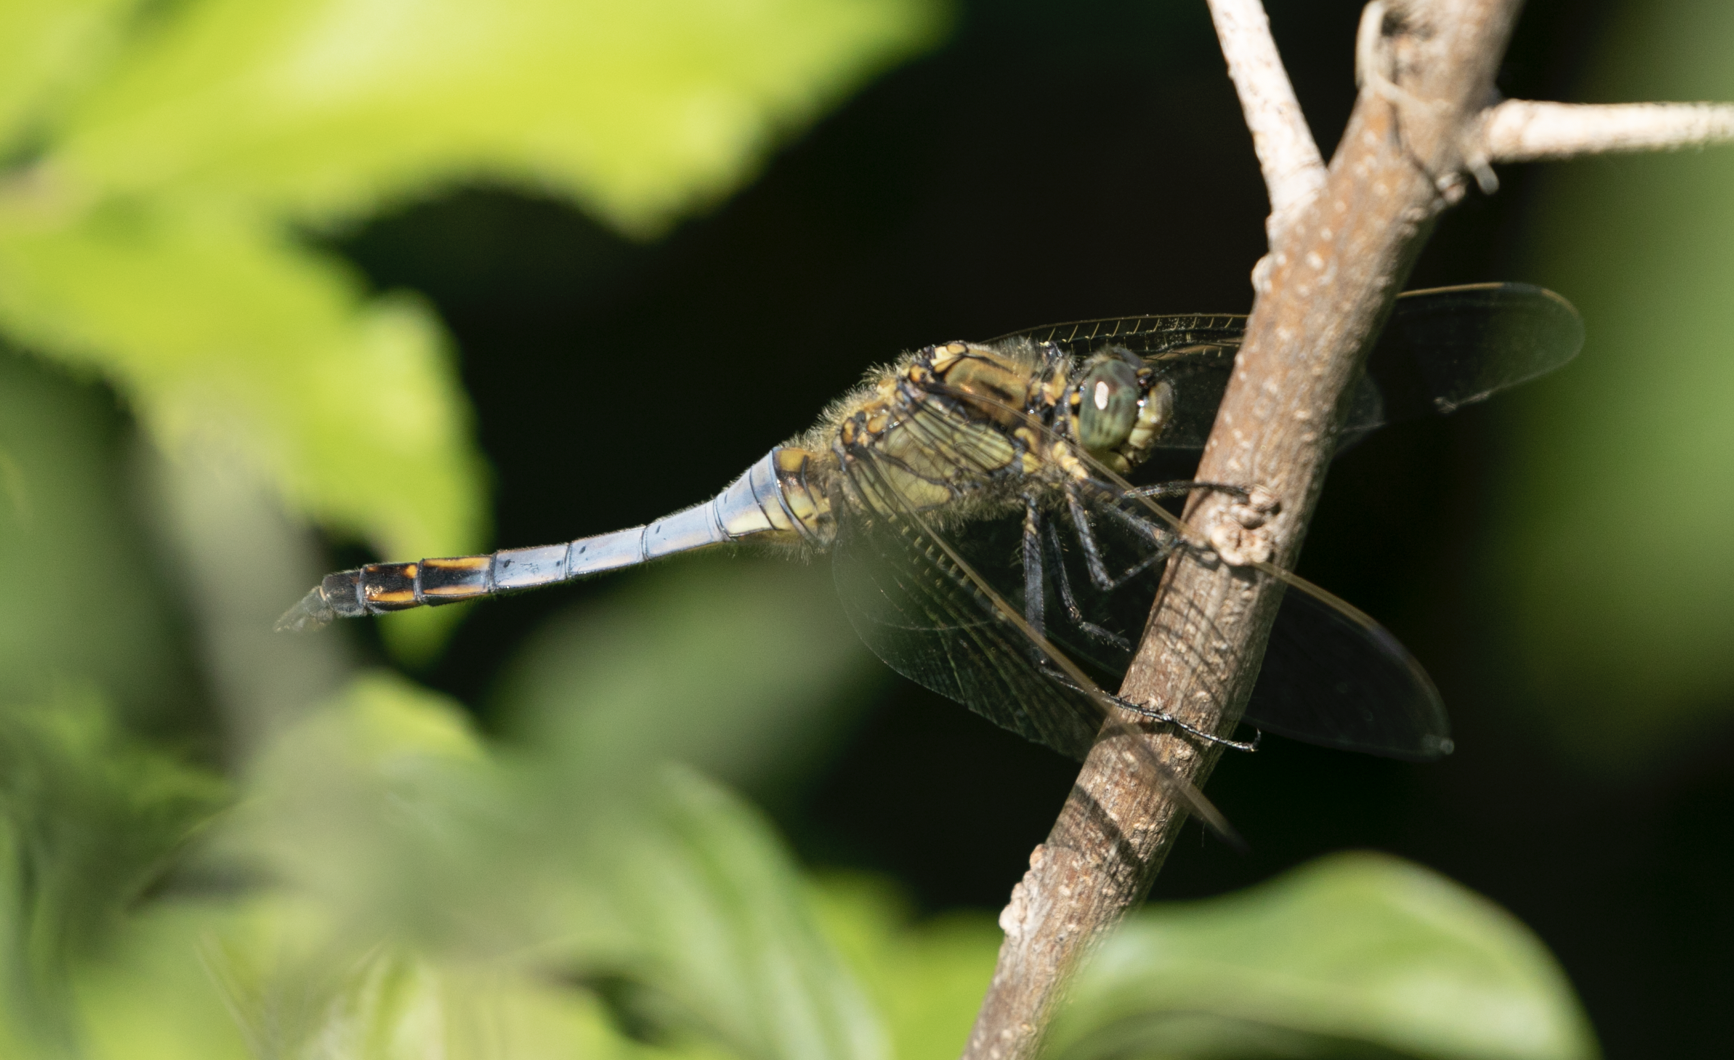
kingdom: Animalia
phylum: Arthropoda
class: Insecta
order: Odonata
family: Libellulidae
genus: Orthetrum
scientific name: Orthetrum cancellatum
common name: Black-tailed skimmer
